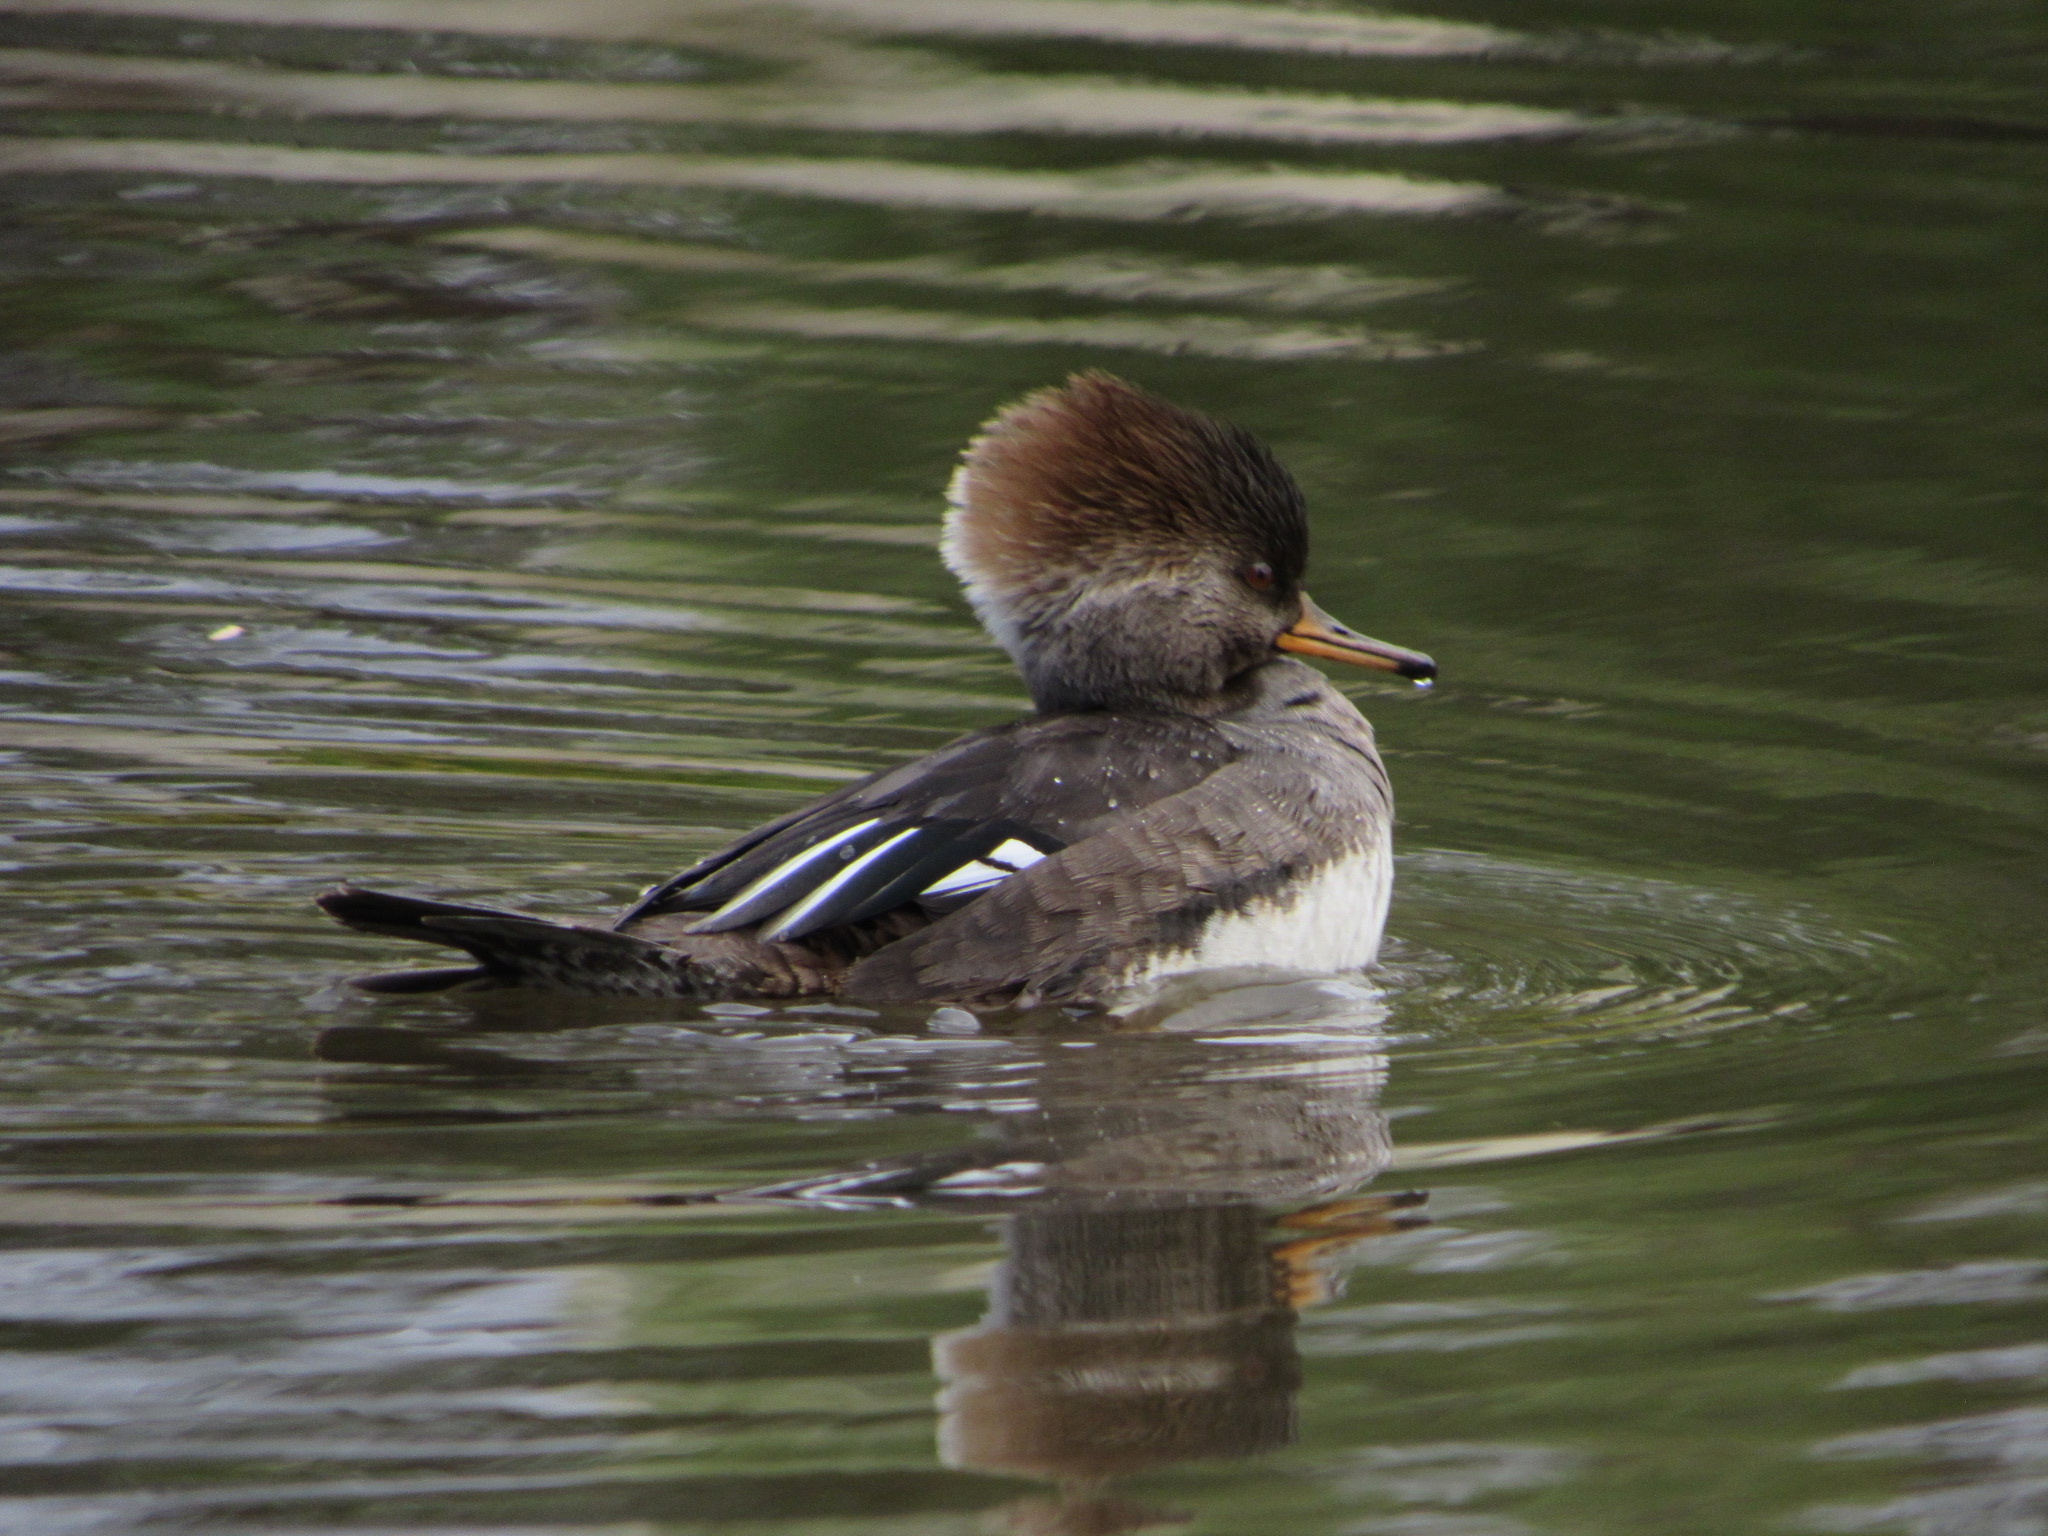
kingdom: Animalia
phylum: Chordata
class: Aves
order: Anseriformes
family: Anatidae
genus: Lophodytes
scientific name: Lophodytes cucullatus
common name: Hooded merganser
